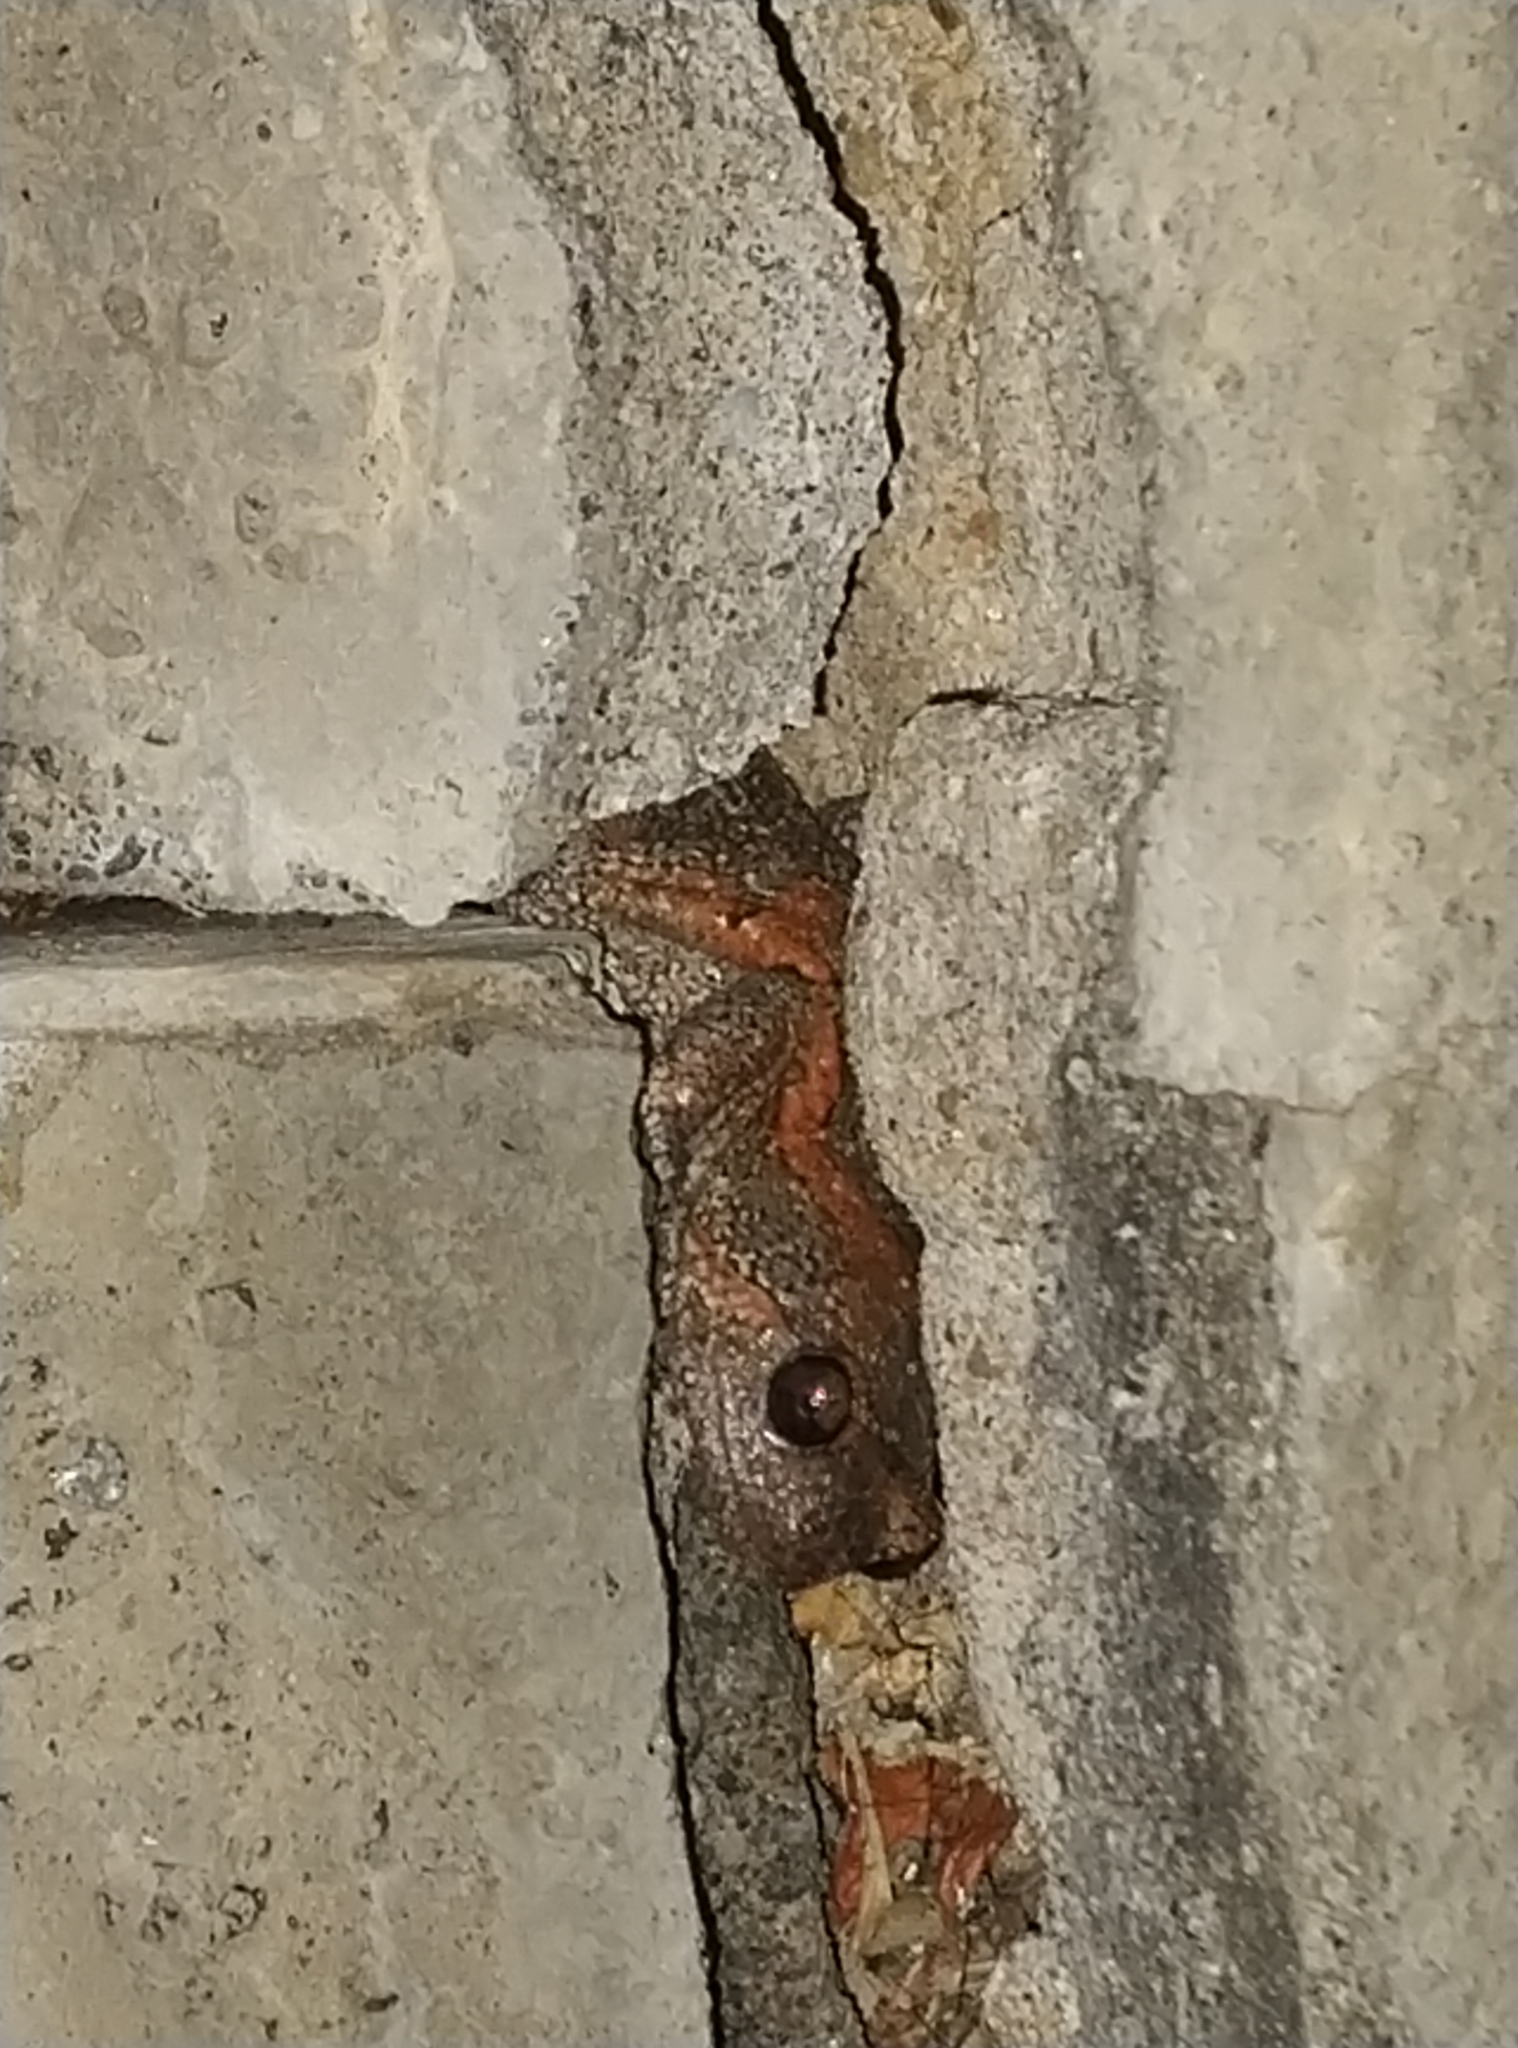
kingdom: Animalia
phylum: Chordata
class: Amphibia
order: Anura
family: Microhylidae
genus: Uperodon
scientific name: Uperodon taprobanicus
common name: Ceylon kaloula
